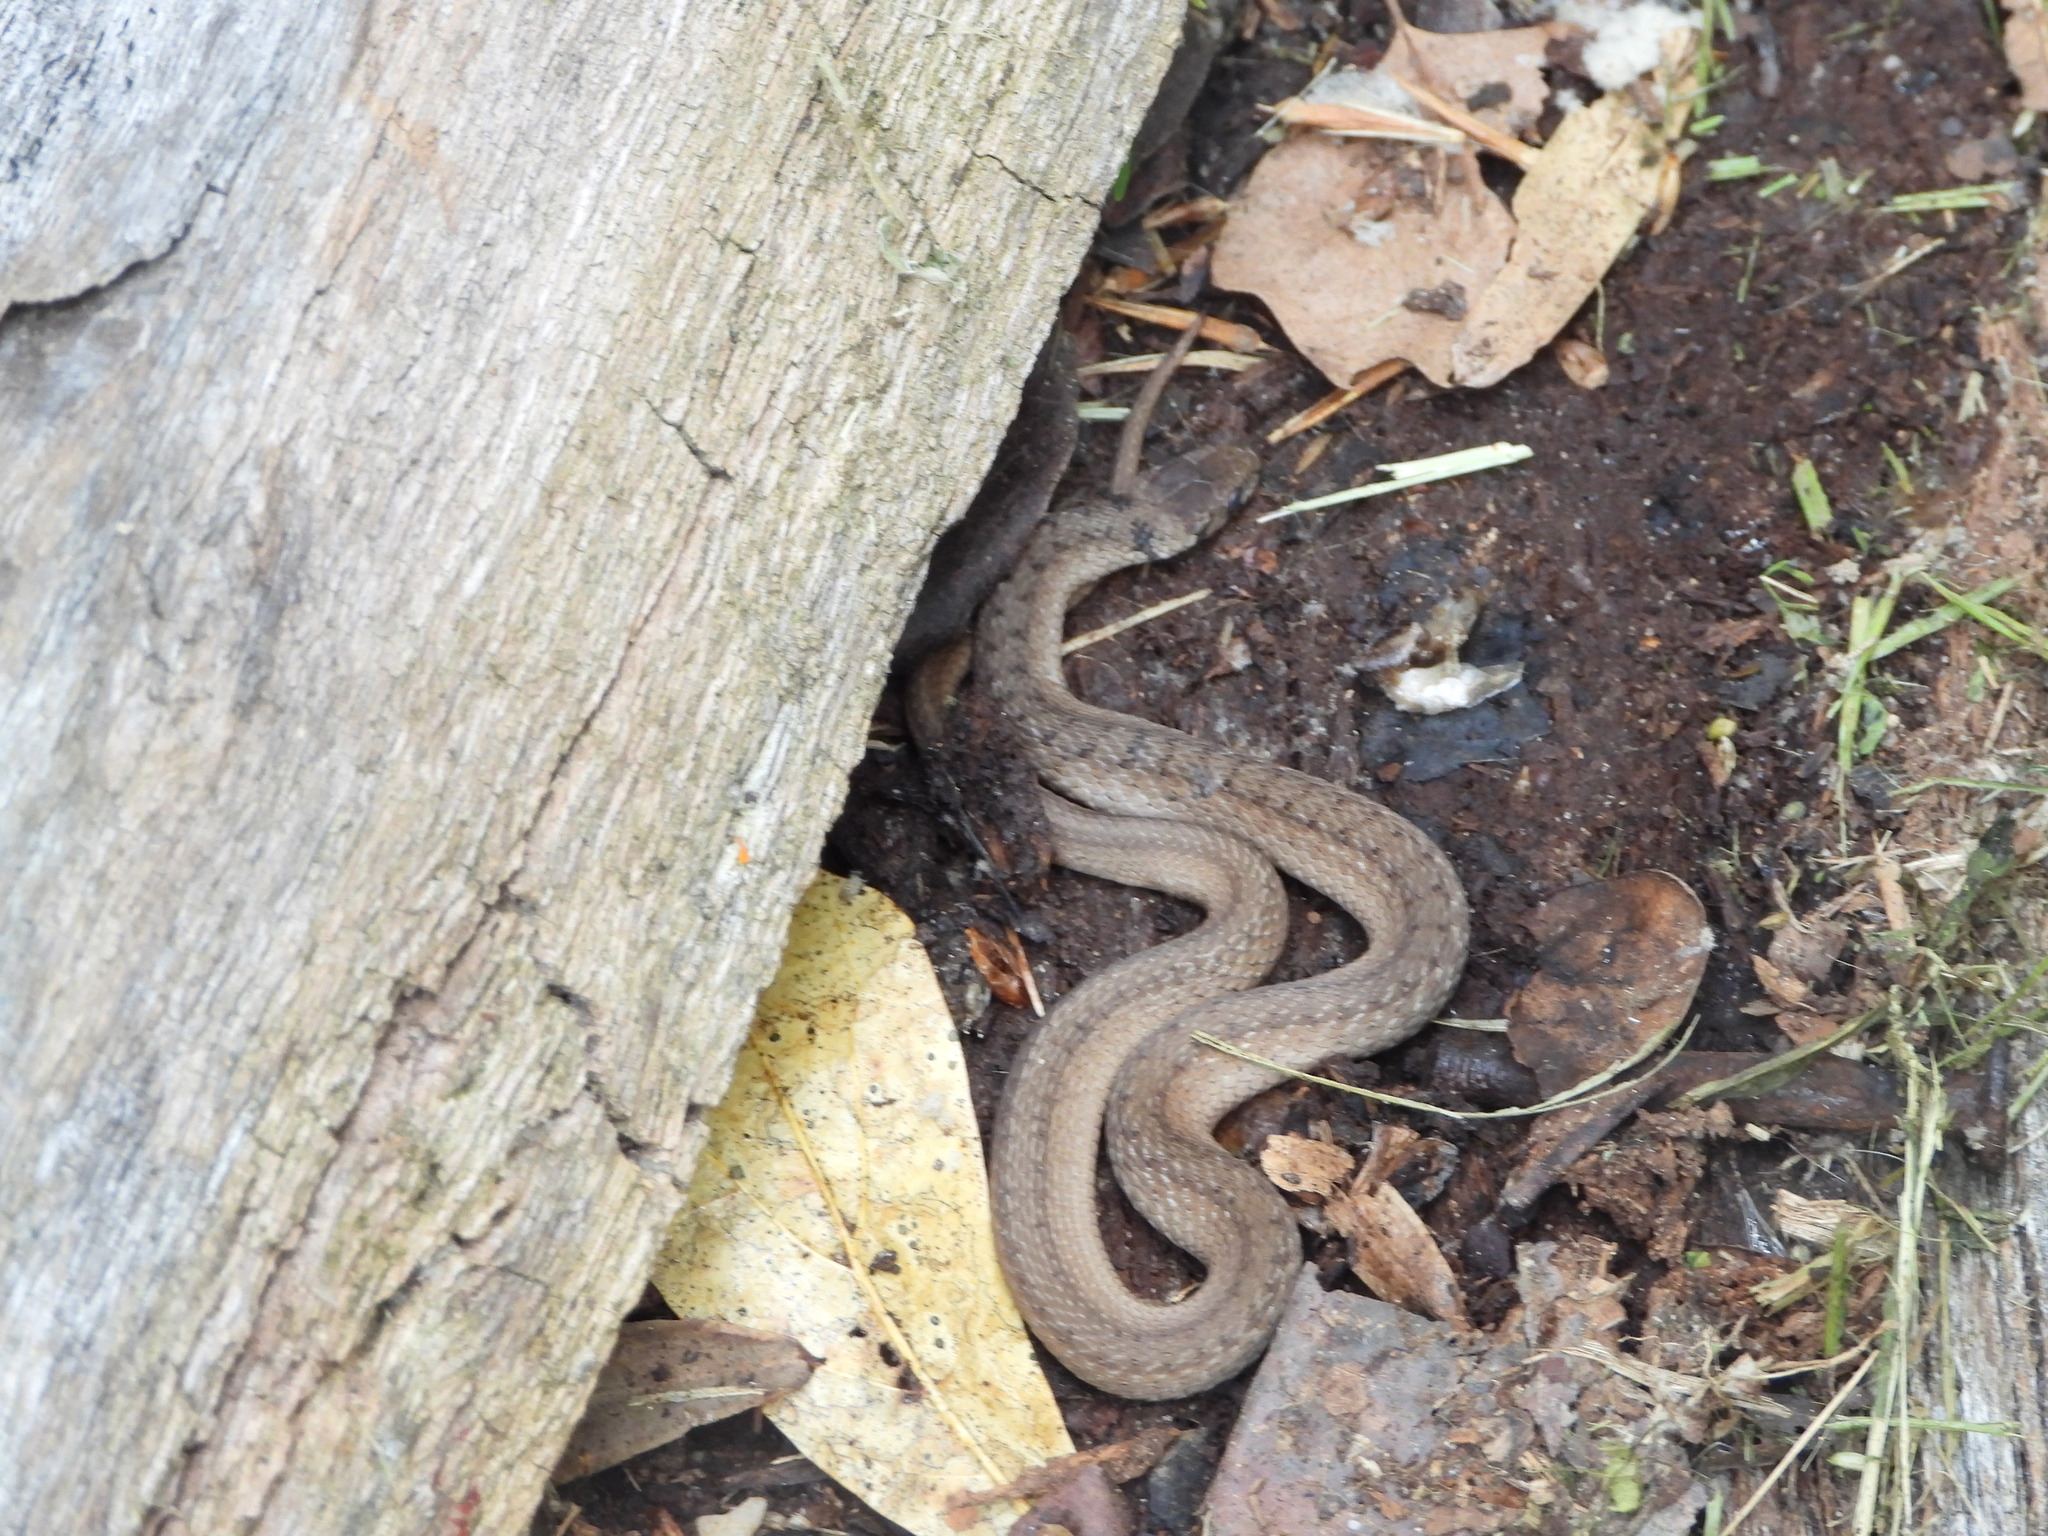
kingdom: Animalia
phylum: Chordata
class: Squamata
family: Colubridae
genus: Storeria
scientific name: Storeria dekayi
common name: (dekay’s) brown snake
